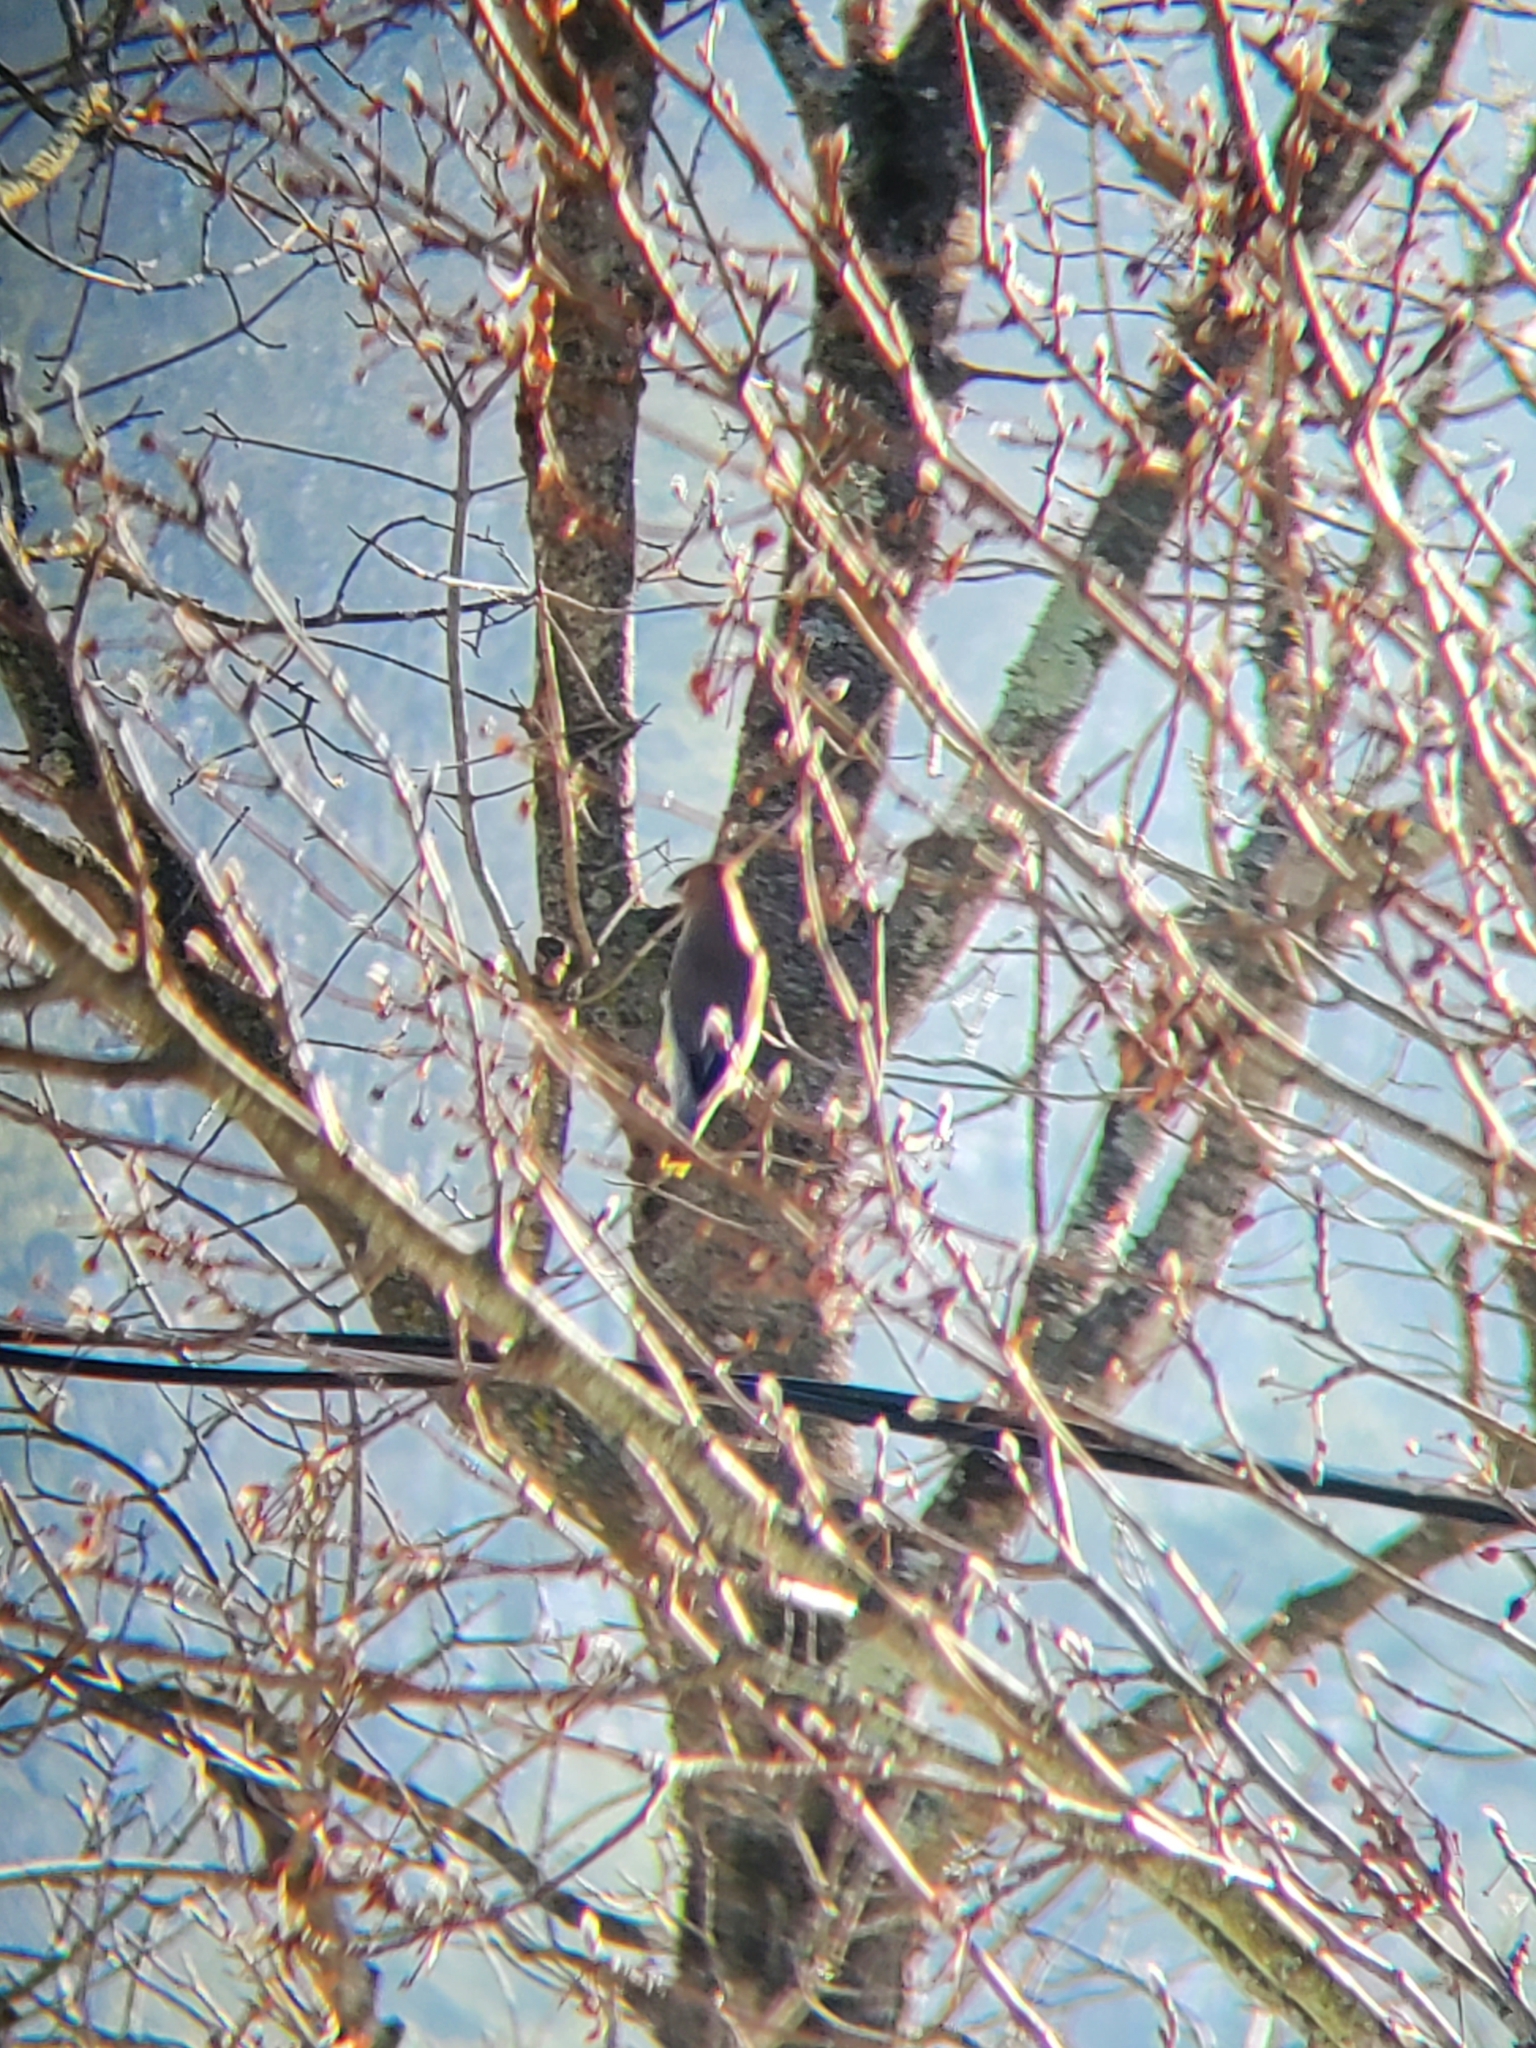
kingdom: Animalia
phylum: Chordata
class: Aves
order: Passeriformes
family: Bombycillidae
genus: Bombycilla
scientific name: Bombycilla cedrorum
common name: Cedar waxwing
